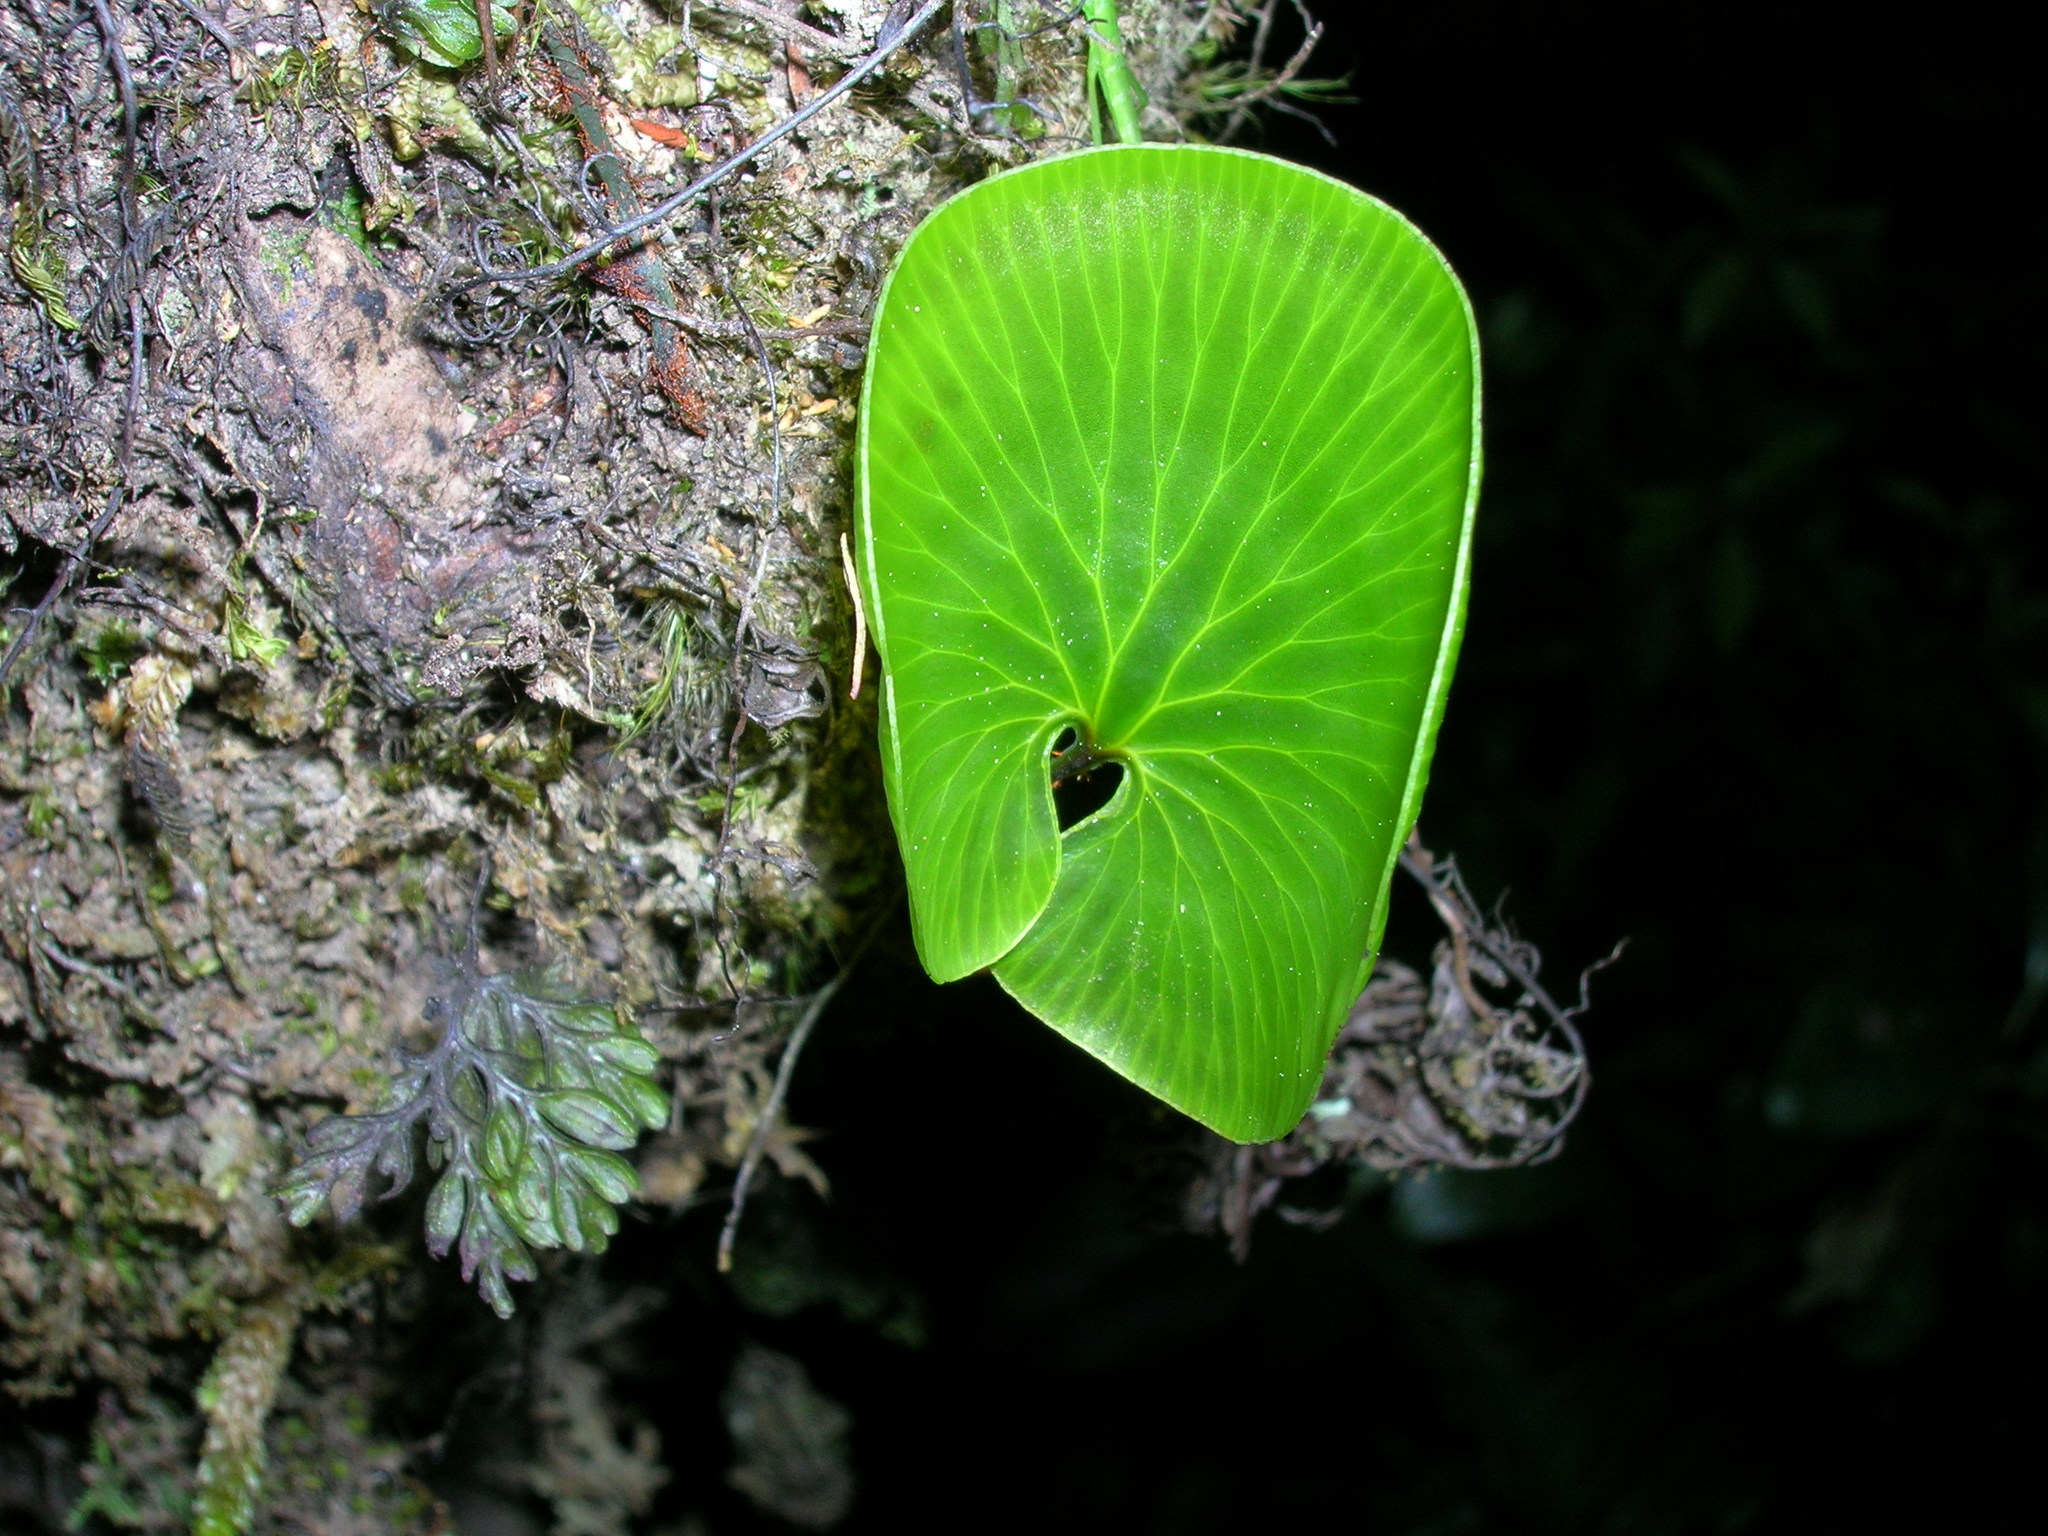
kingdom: Plantae
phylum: Tracheophyta
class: Polypodiopsida
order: Hymenophyllales
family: Hymenophyllaceae
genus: Hymenophyllum
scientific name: Hymenophyllum nephrophyllum
